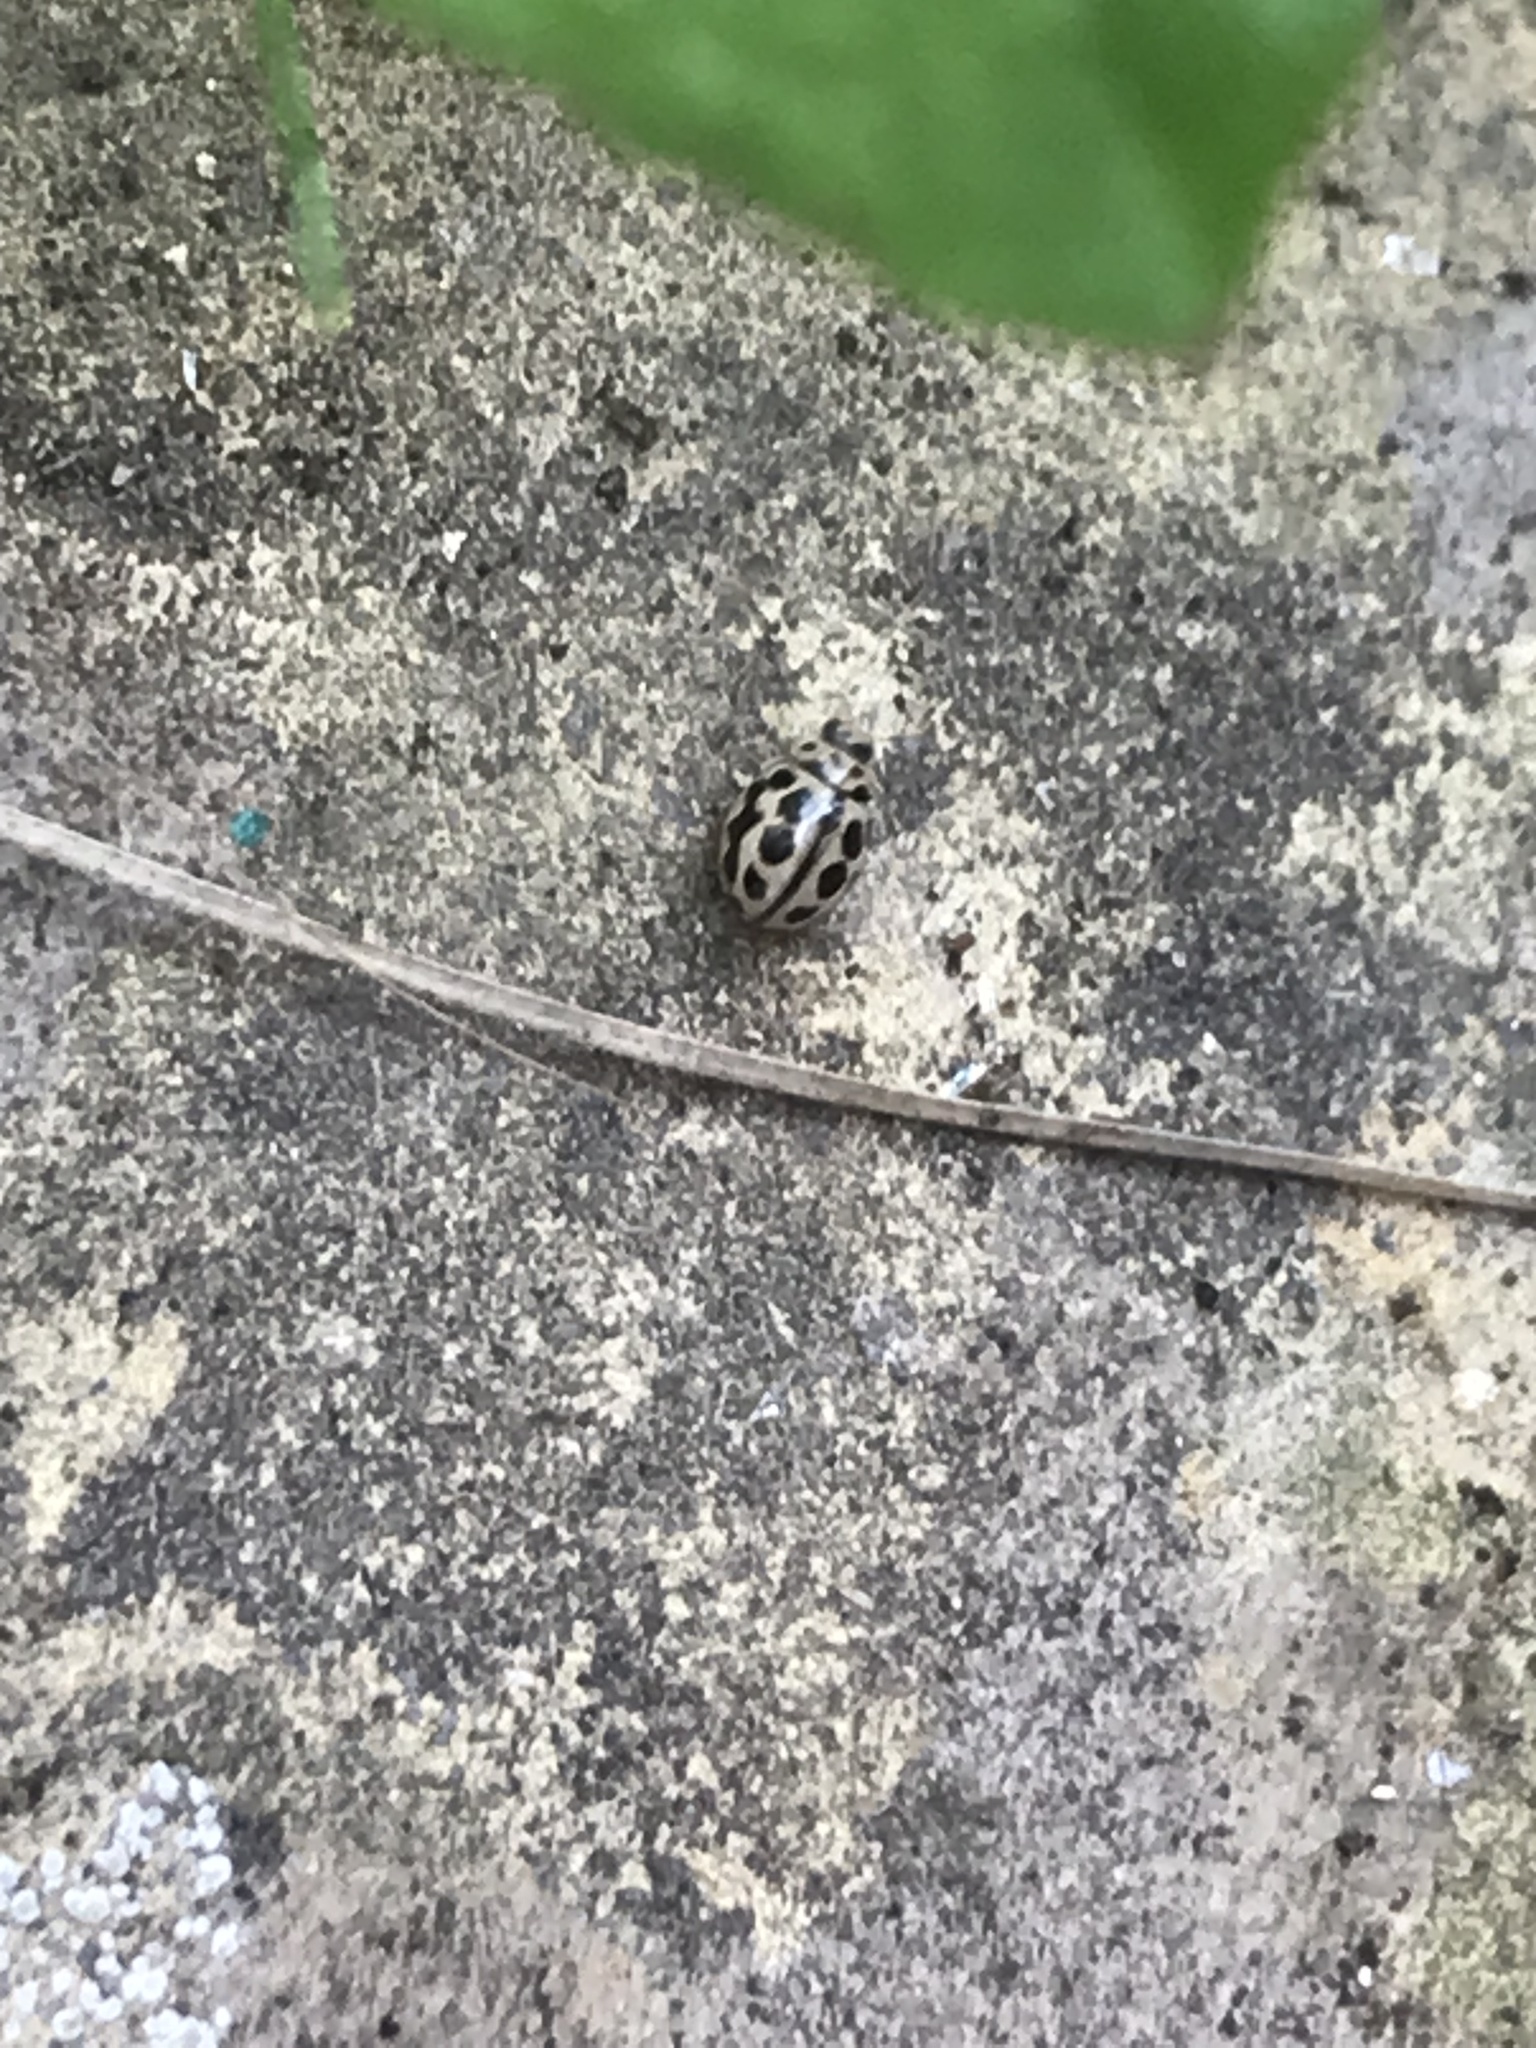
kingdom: Animalia
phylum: Arthropoda
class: Insecta
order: Coleoptera
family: Coccinellidae
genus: Tytthaspis
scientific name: Tytthaspis sedecimpunctata
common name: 16-spot ladybird
